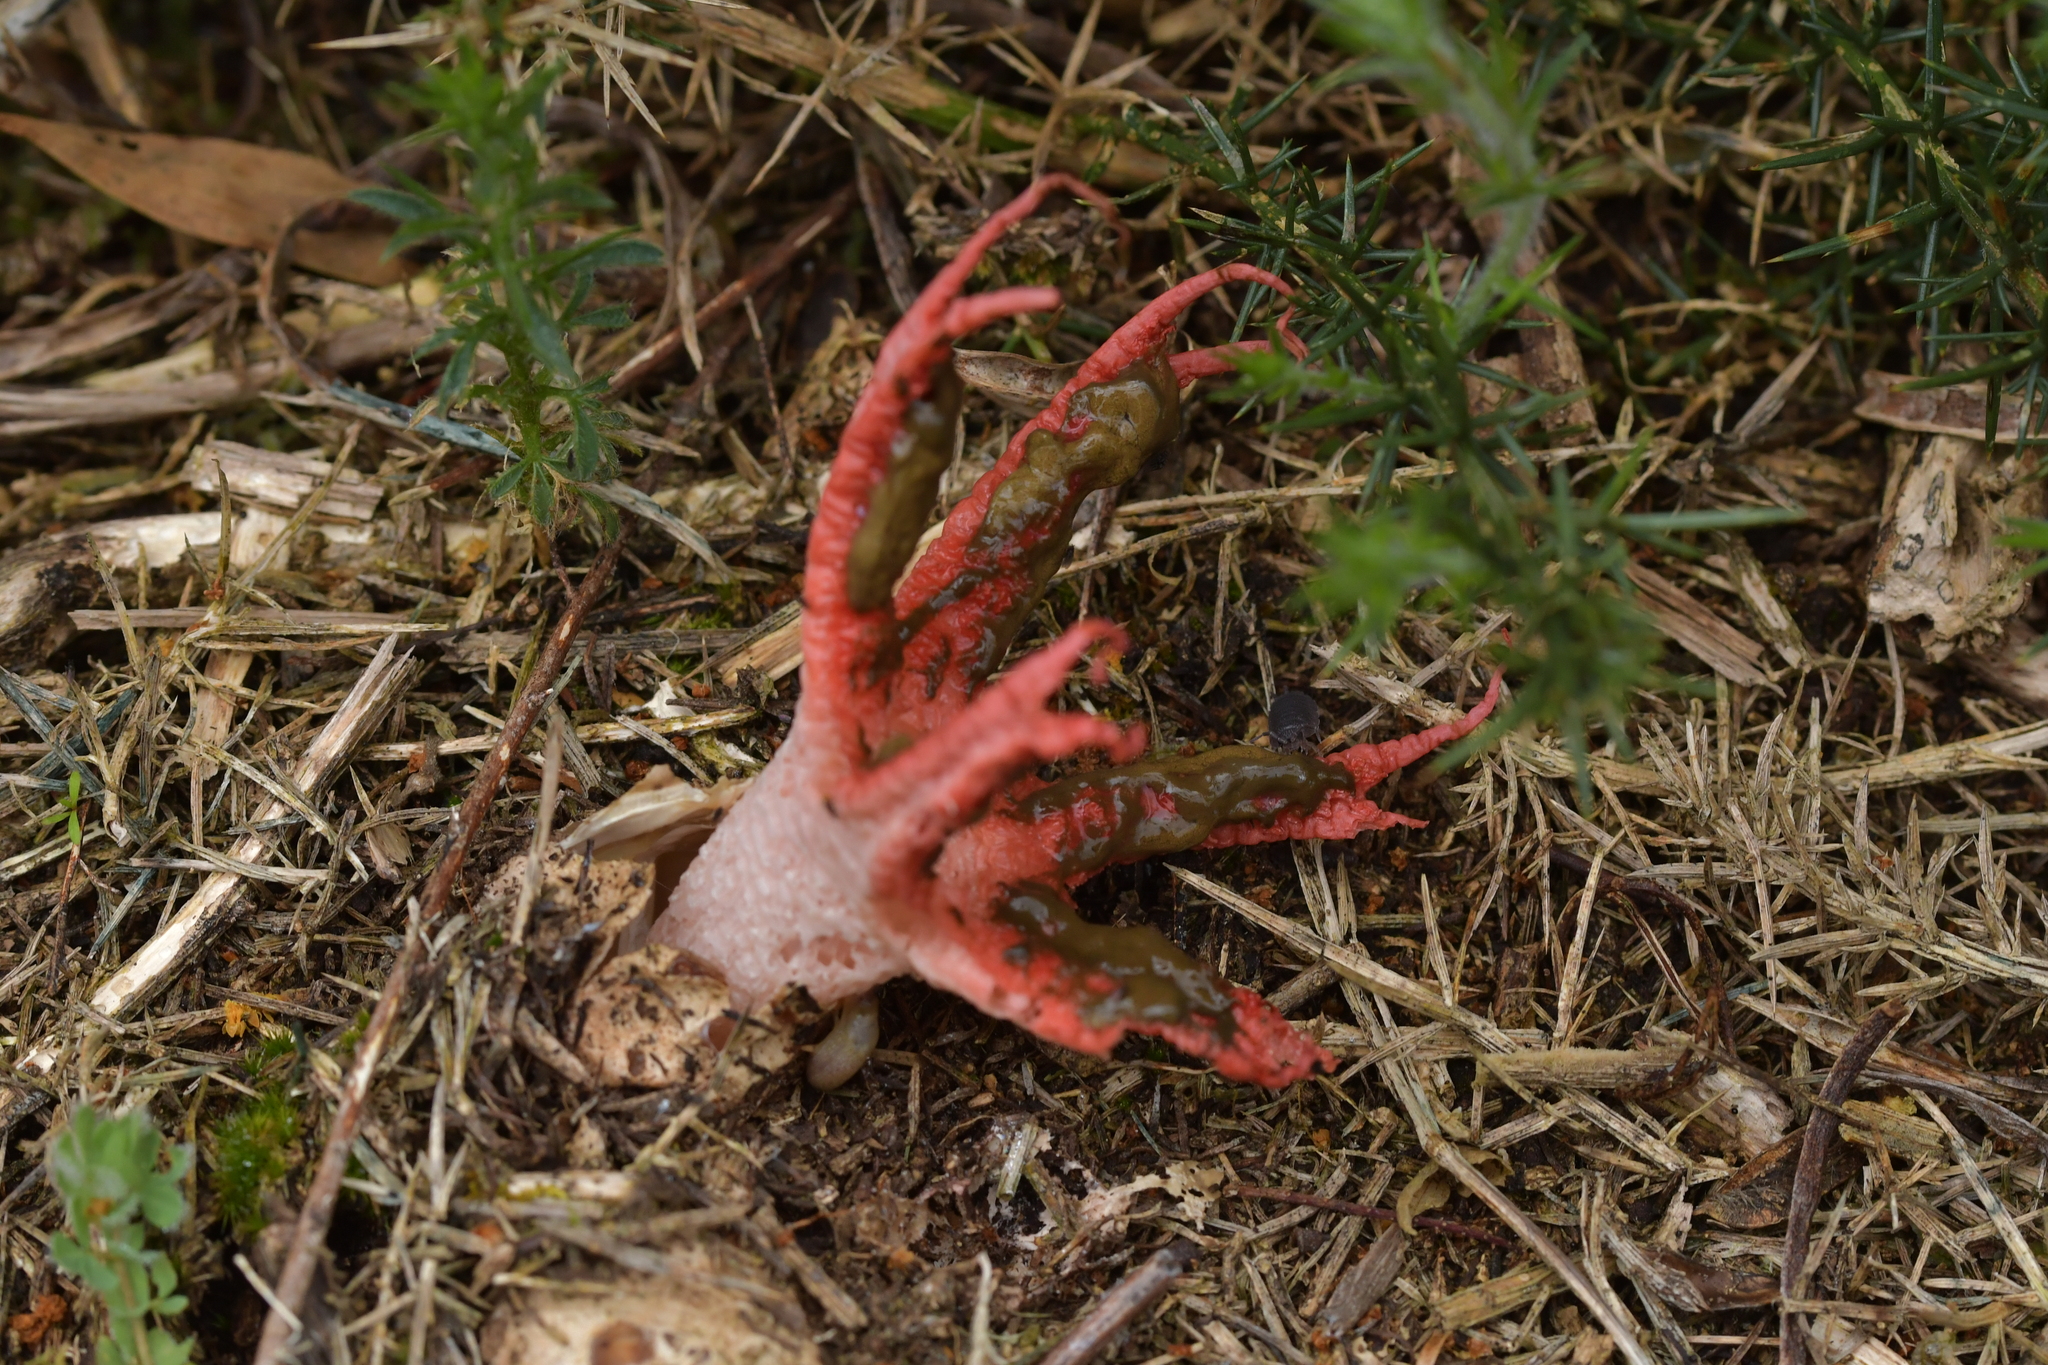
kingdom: Fungi
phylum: Basidiomycota
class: Agaricomycetes
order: Phallales
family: Phallaceae
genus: Clathrus
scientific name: Clathrus archeri
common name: Devil's fingers
